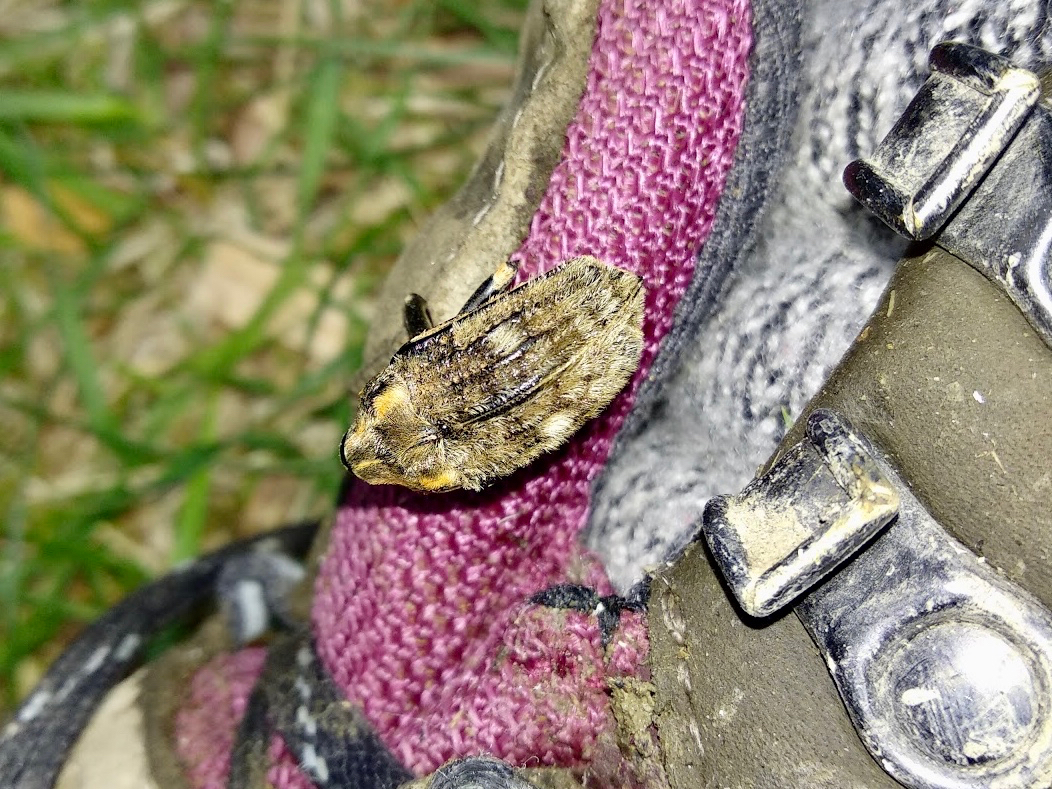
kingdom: Animalia
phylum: Arthropoda
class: Insecta
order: Coleoptera
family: Curculionidae
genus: Rhynchodes
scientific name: Rhynchodes ursus
